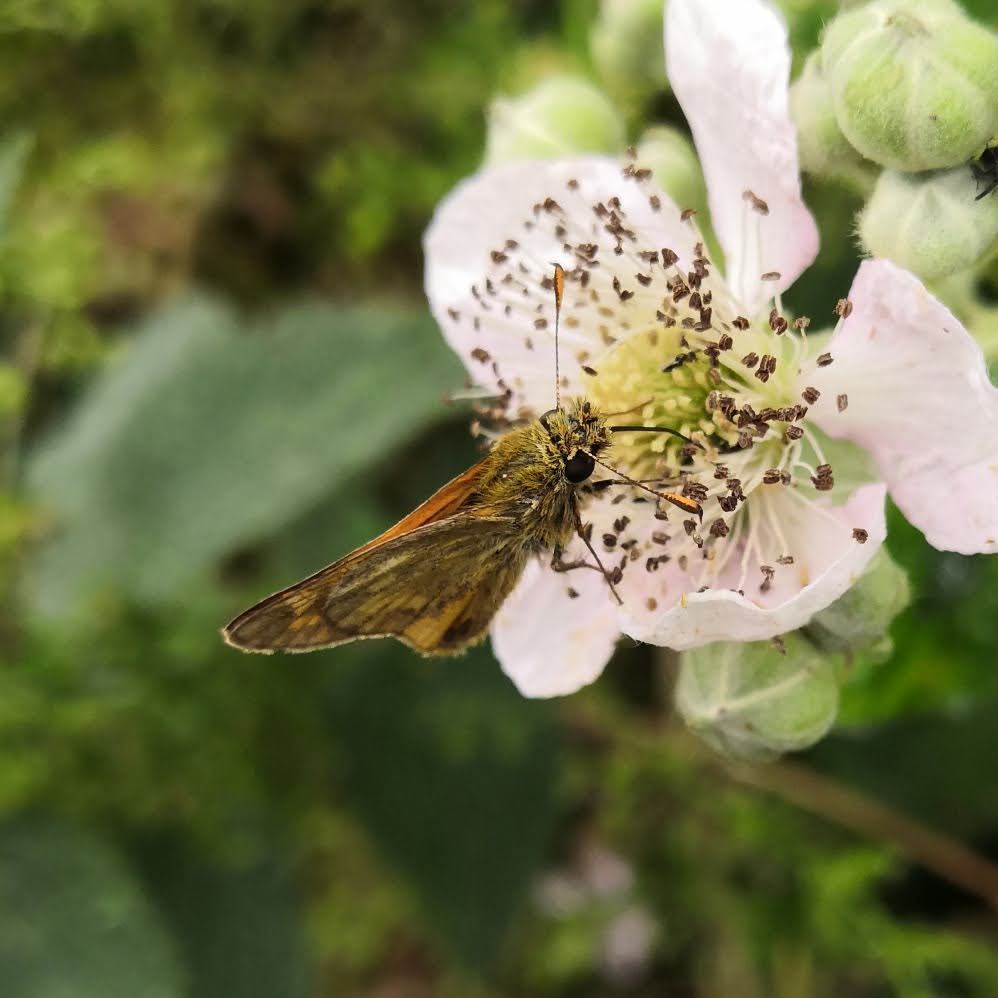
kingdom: Animalia
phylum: Arthropoda
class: Insecta
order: Lepidoptera
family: Hesperiidae
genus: Ochlodes
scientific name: Ochlodes venata
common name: Large skipper
